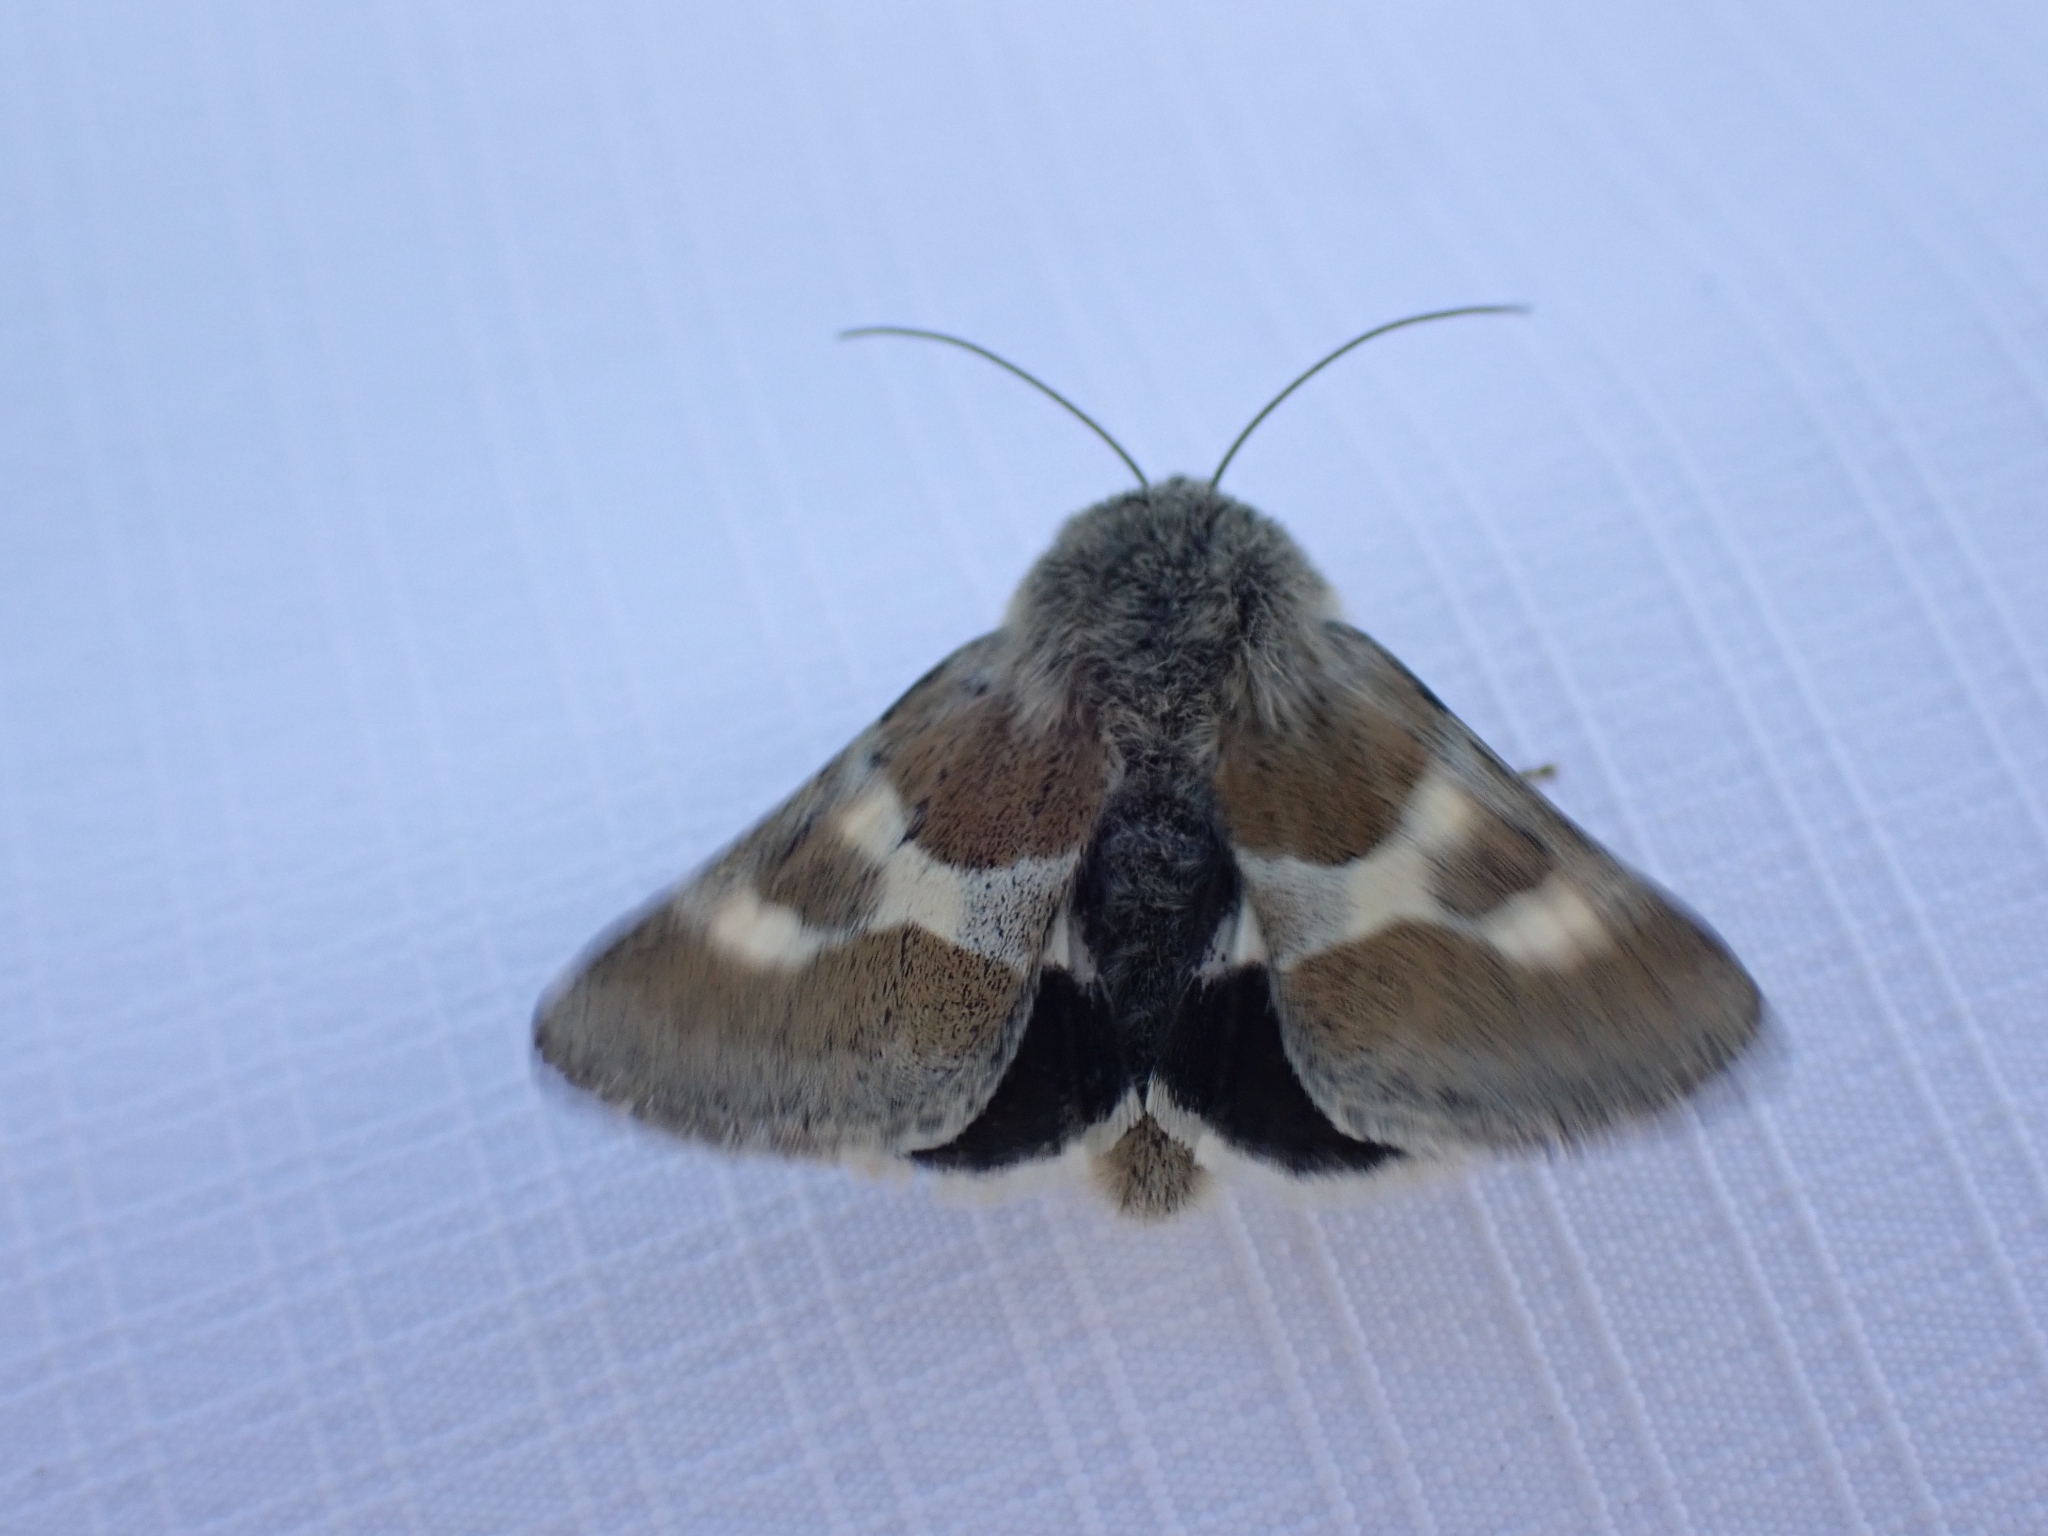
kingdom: Animalia
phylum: Arthropoda
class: Insecta
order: Lepidoptera
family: Noctuidae
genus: Schinia
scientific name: Schinia suetus
